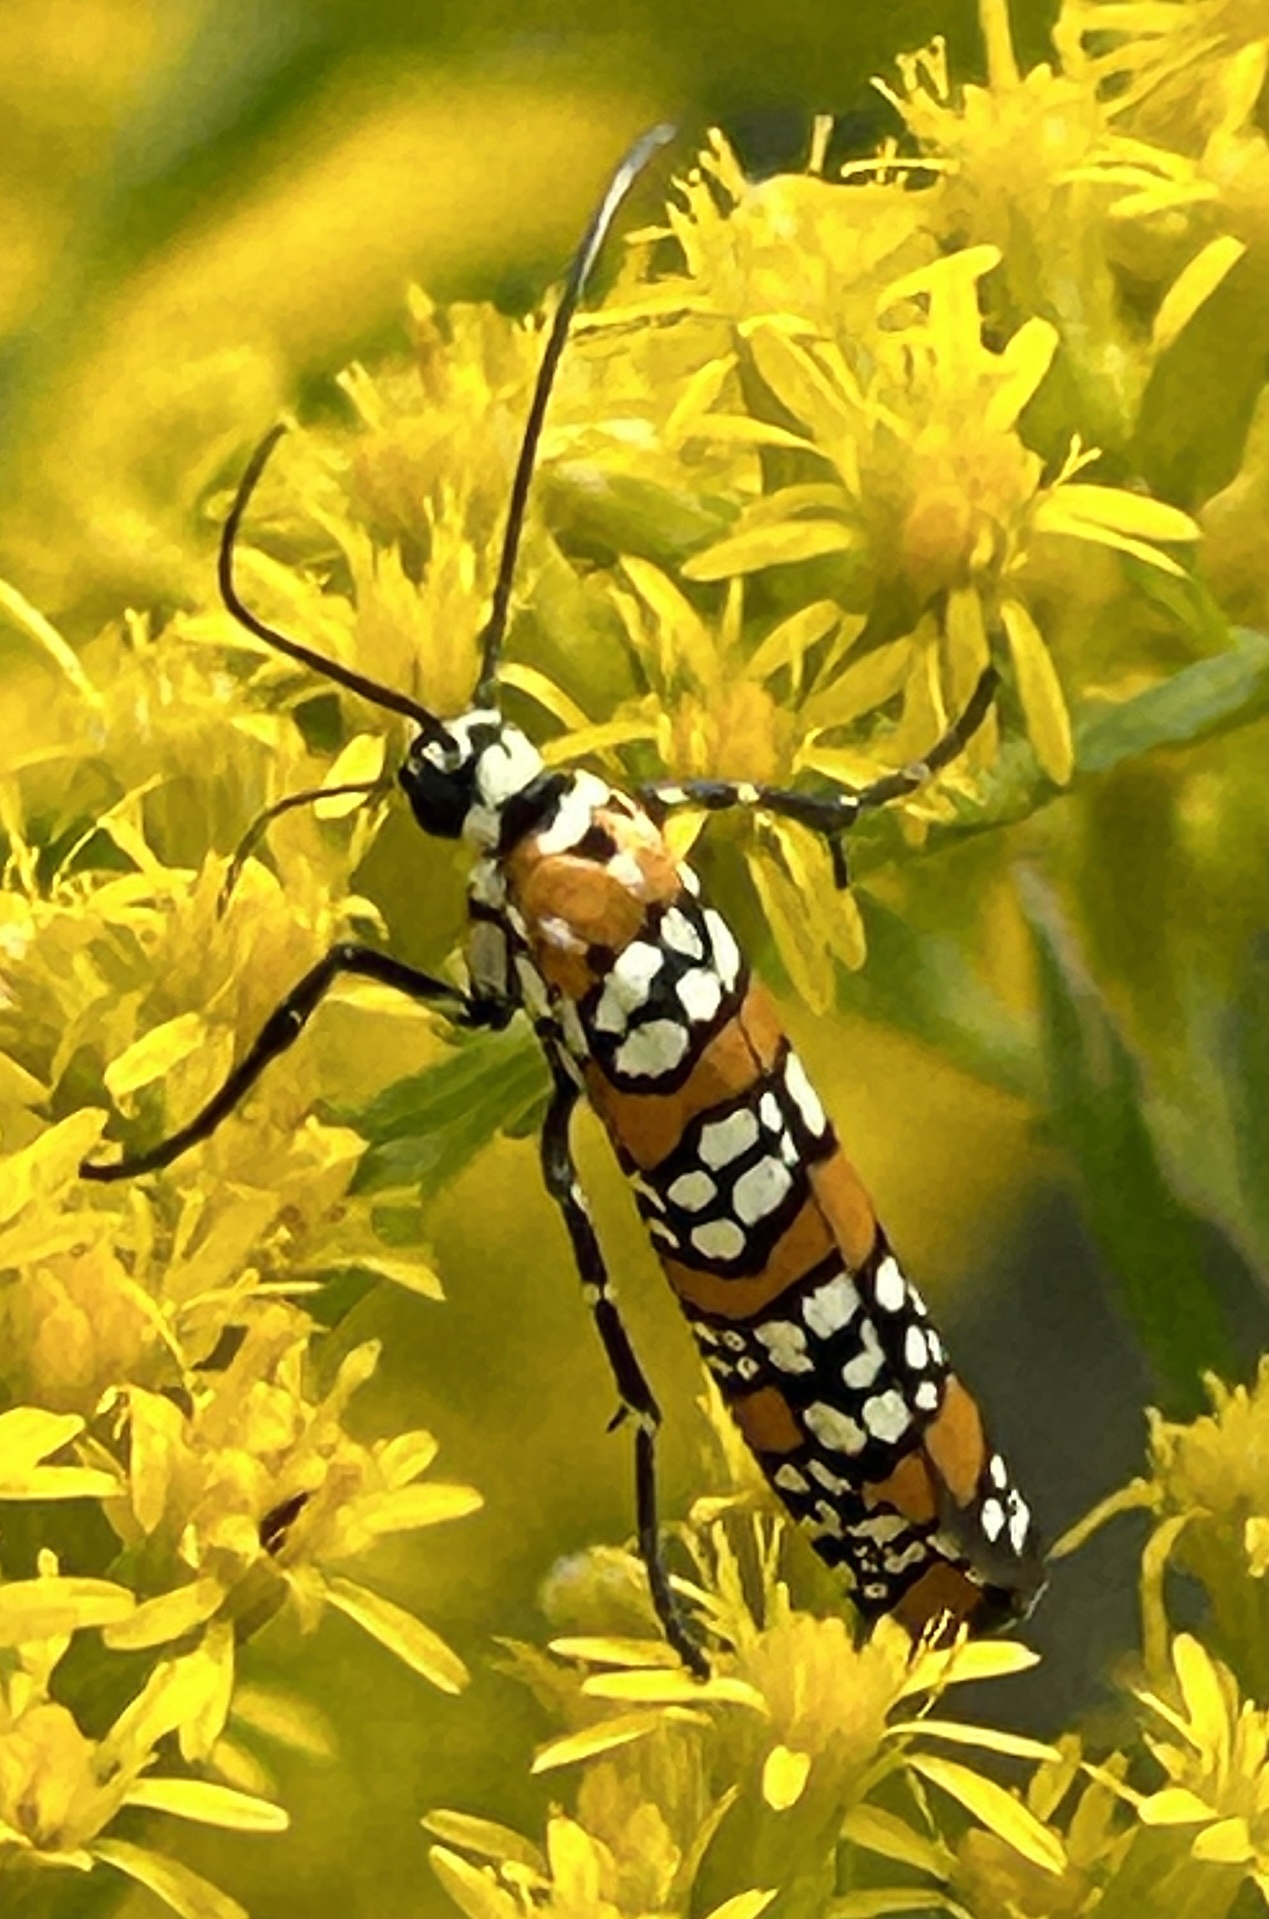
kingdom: Animalia
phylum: Arthropoda
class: Insecta
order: Lepidoptera
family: Attevidae
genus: Atteva
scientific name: Atteva punctella
